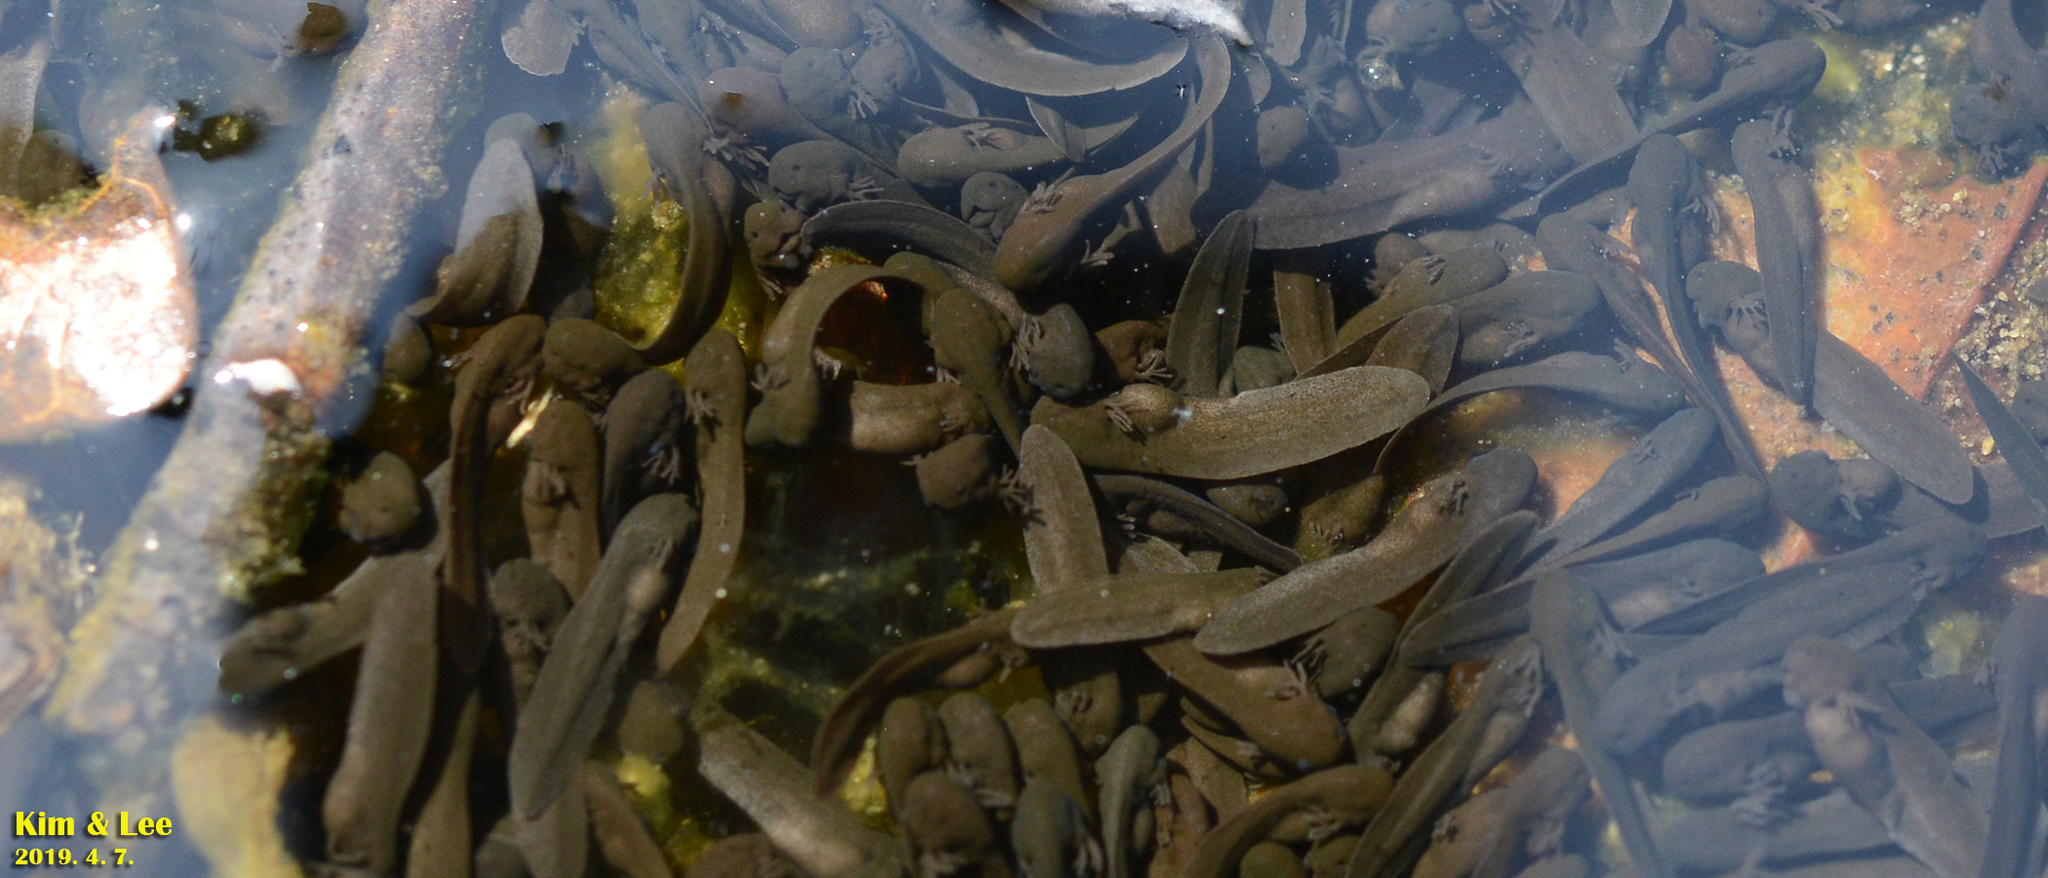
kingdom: Animalia
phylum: Chordata
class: Amphibia
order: Anura
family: Ranidae
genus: Rana
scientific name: Rana huanrenensis
